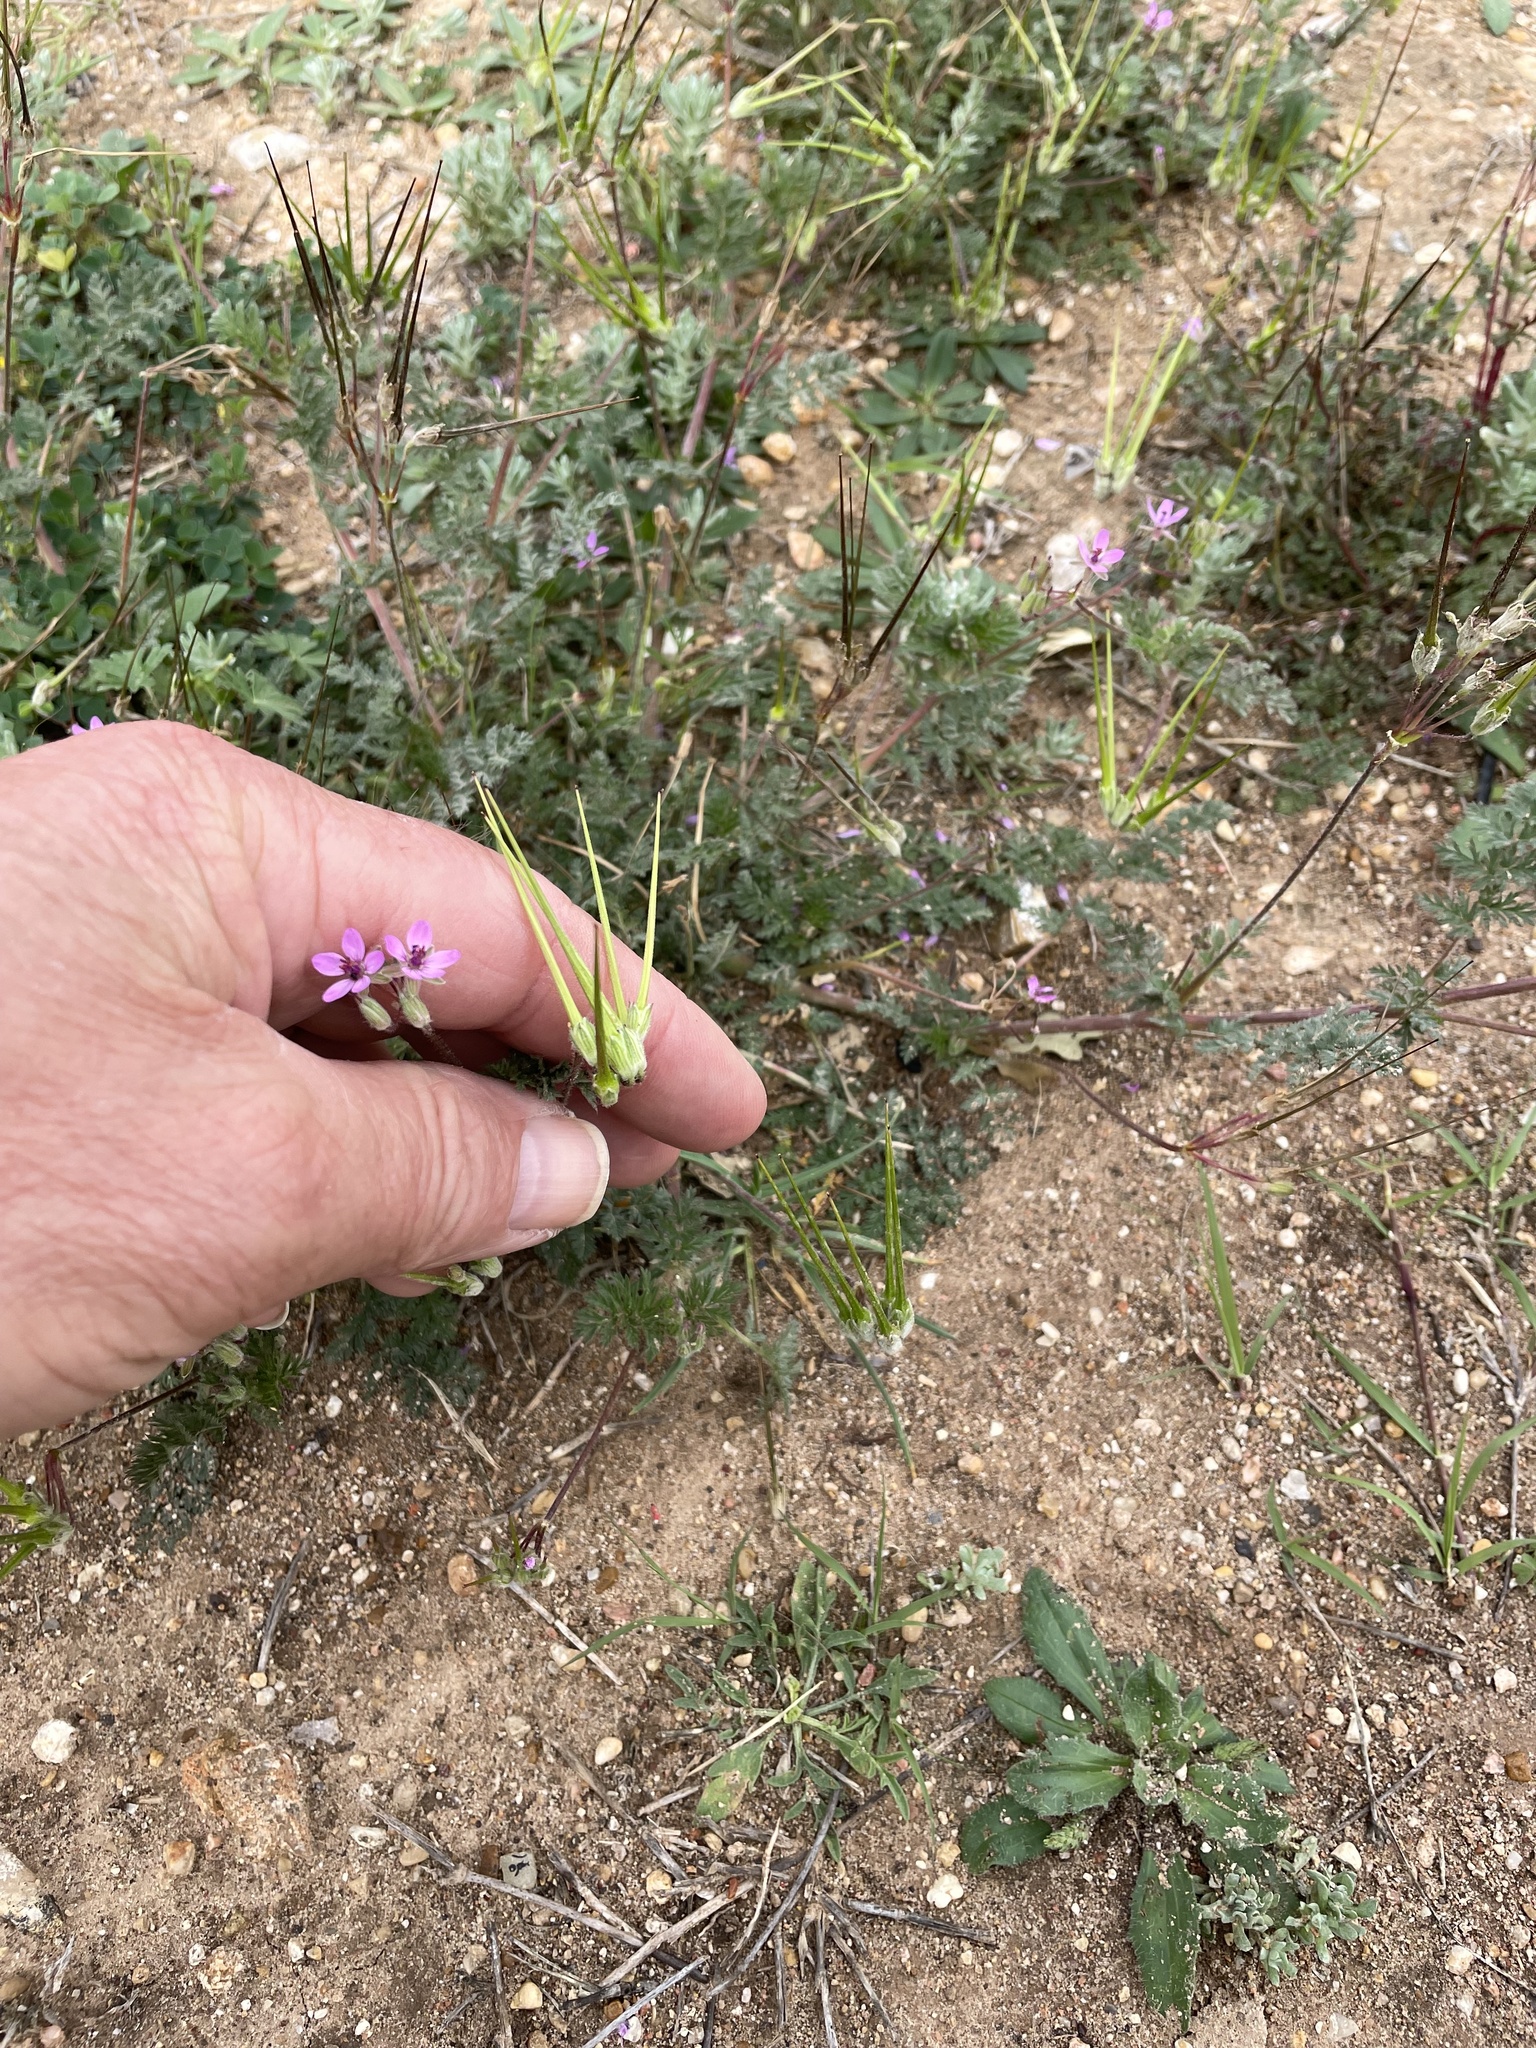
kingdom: Plantae
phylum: Tracheophyta
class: Magnoliopsida
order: Geraniales
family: Geraniaceae
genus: Erodium
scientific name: Erodium cicutarium
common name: Common stork's-bill
